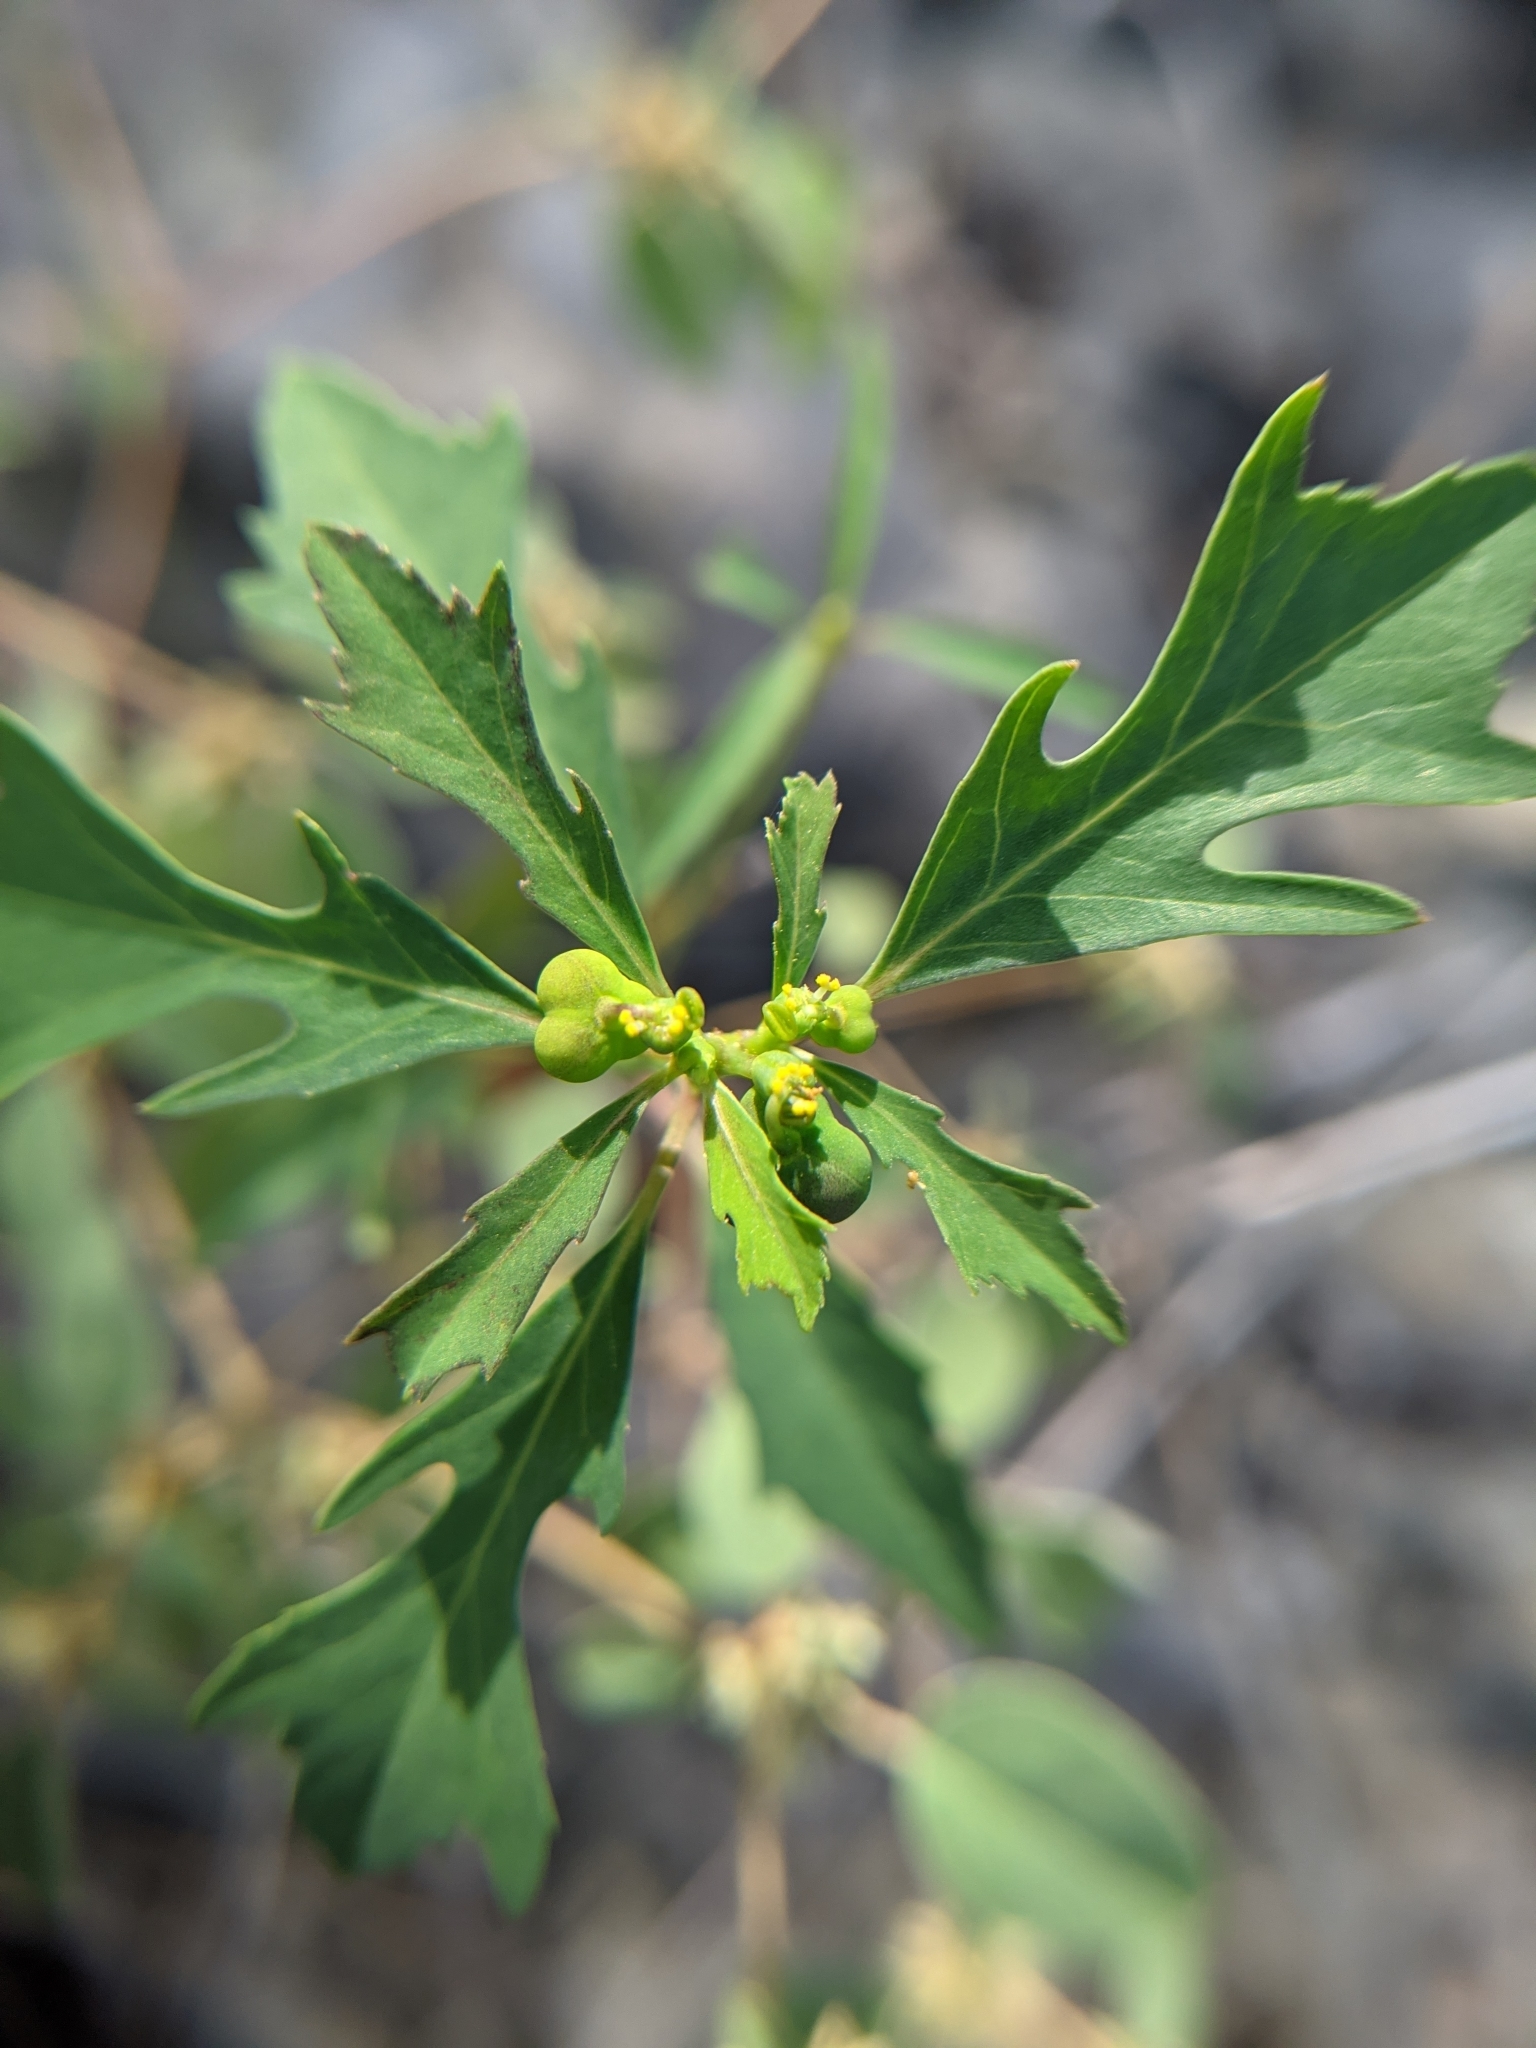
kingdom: Plantae
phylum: Tracheophyta
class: Magnoliopsida
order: Malpighiales
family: Euphorbiaceae
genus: Euphorbia
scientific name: Euphorbia heterophylla
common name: Mexican fireplant
